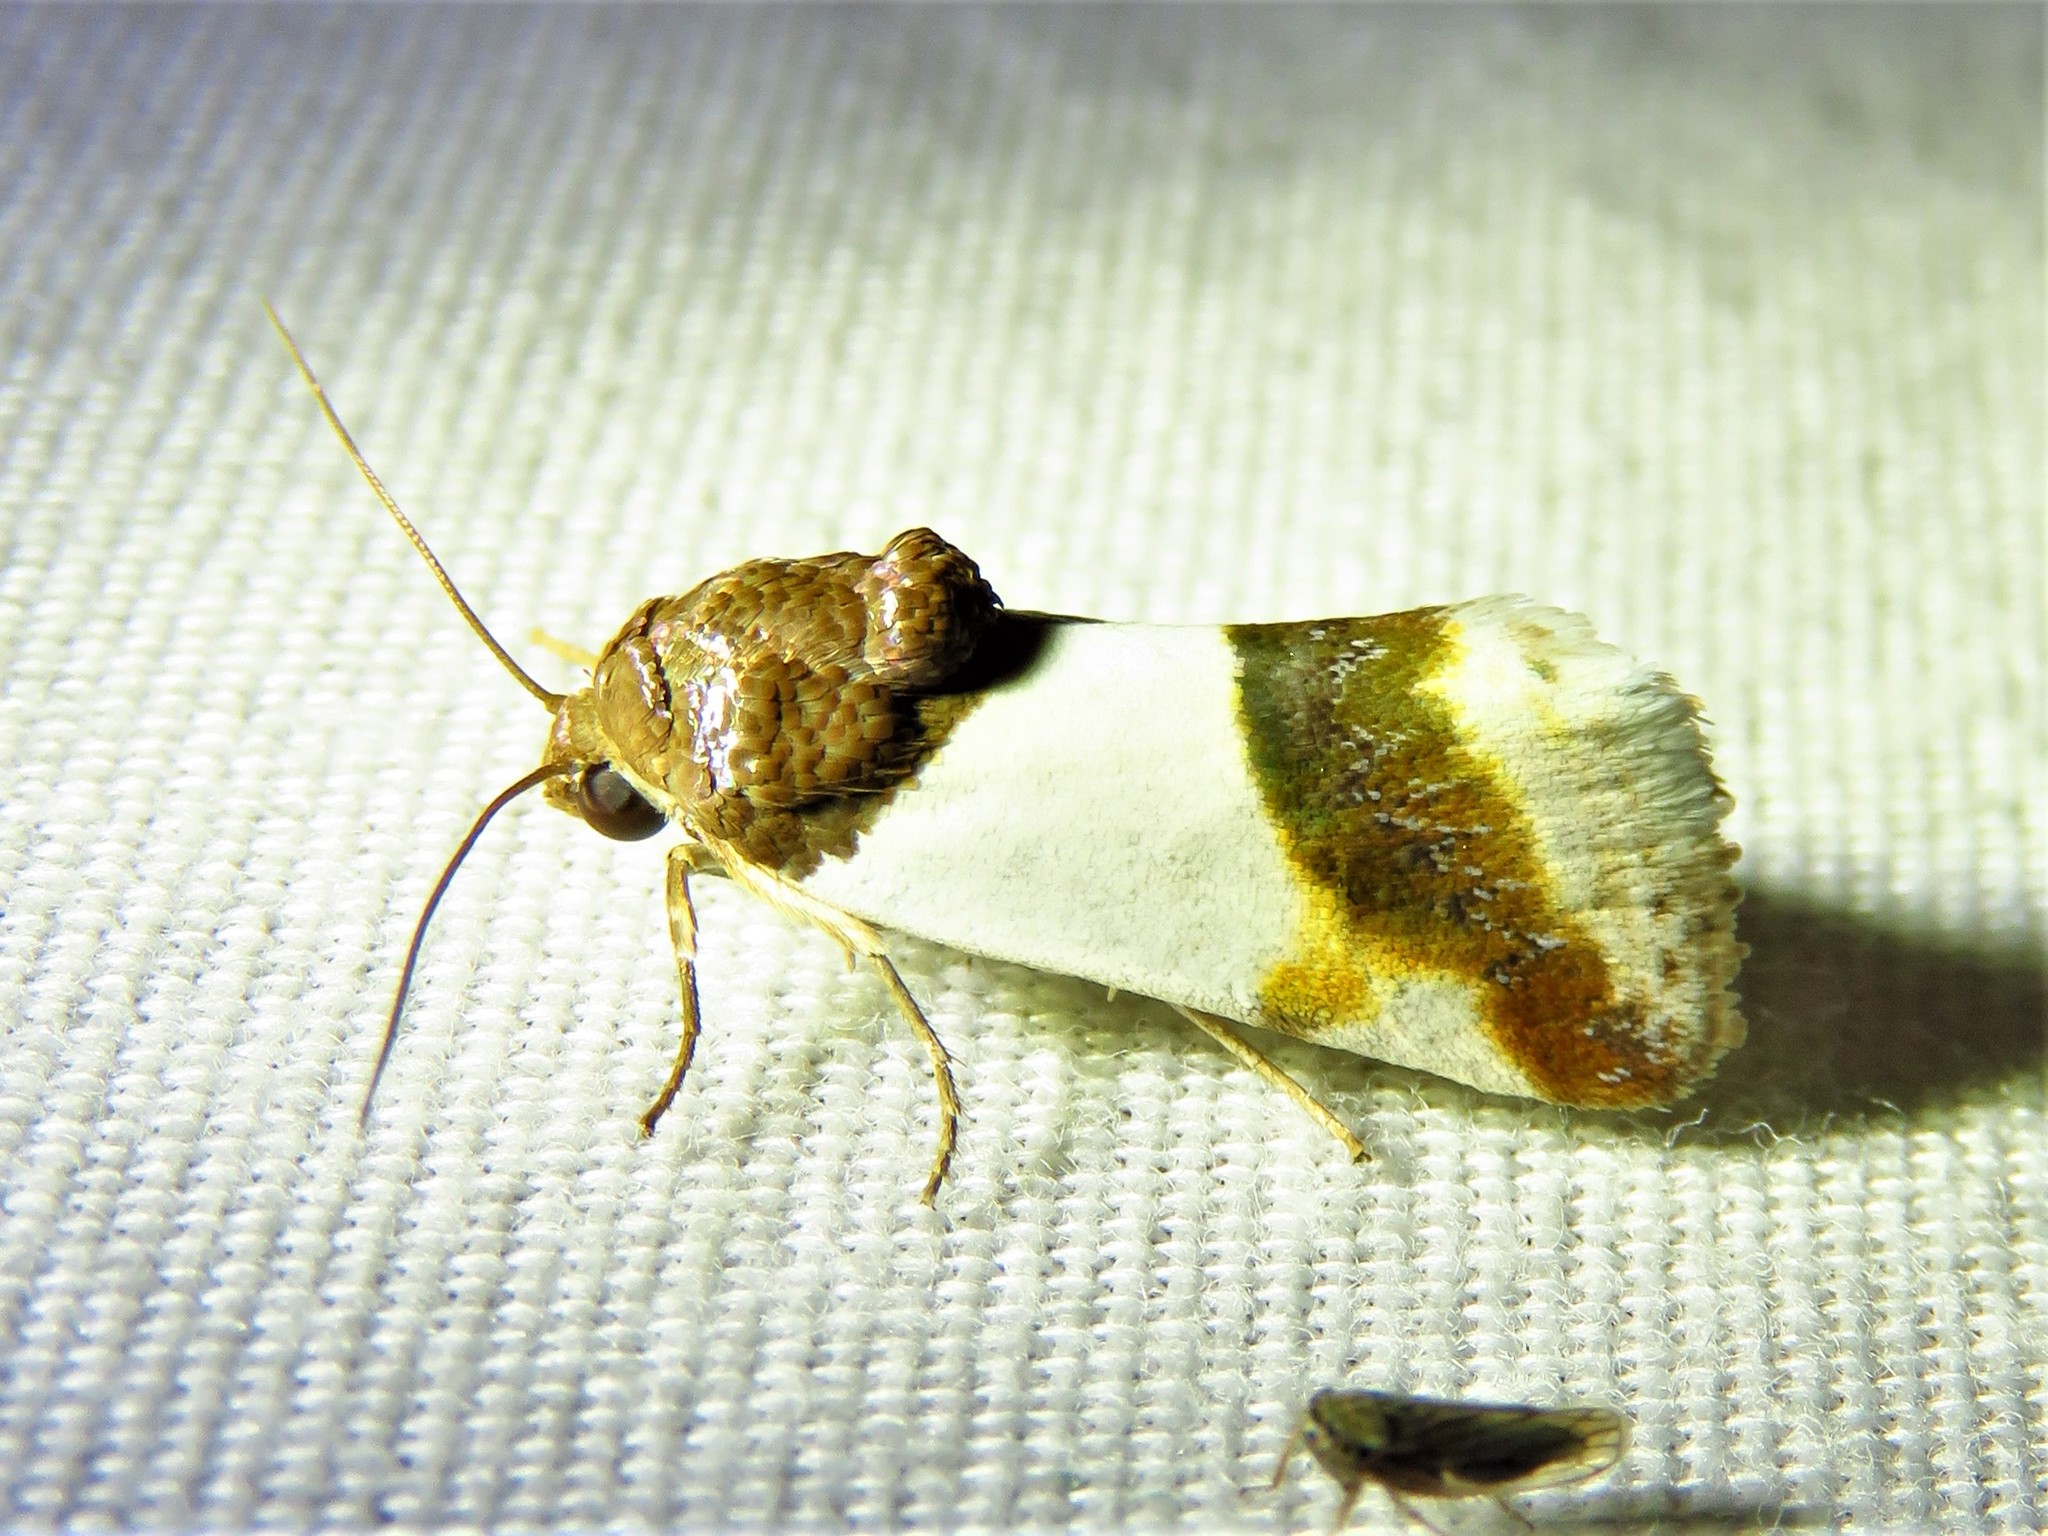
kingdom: Animalia
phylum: Arthropoda
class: Insecta
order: Lepidoptera
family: Noctuidae
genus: Acontia
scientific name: Acontia Tarache lactipennis
